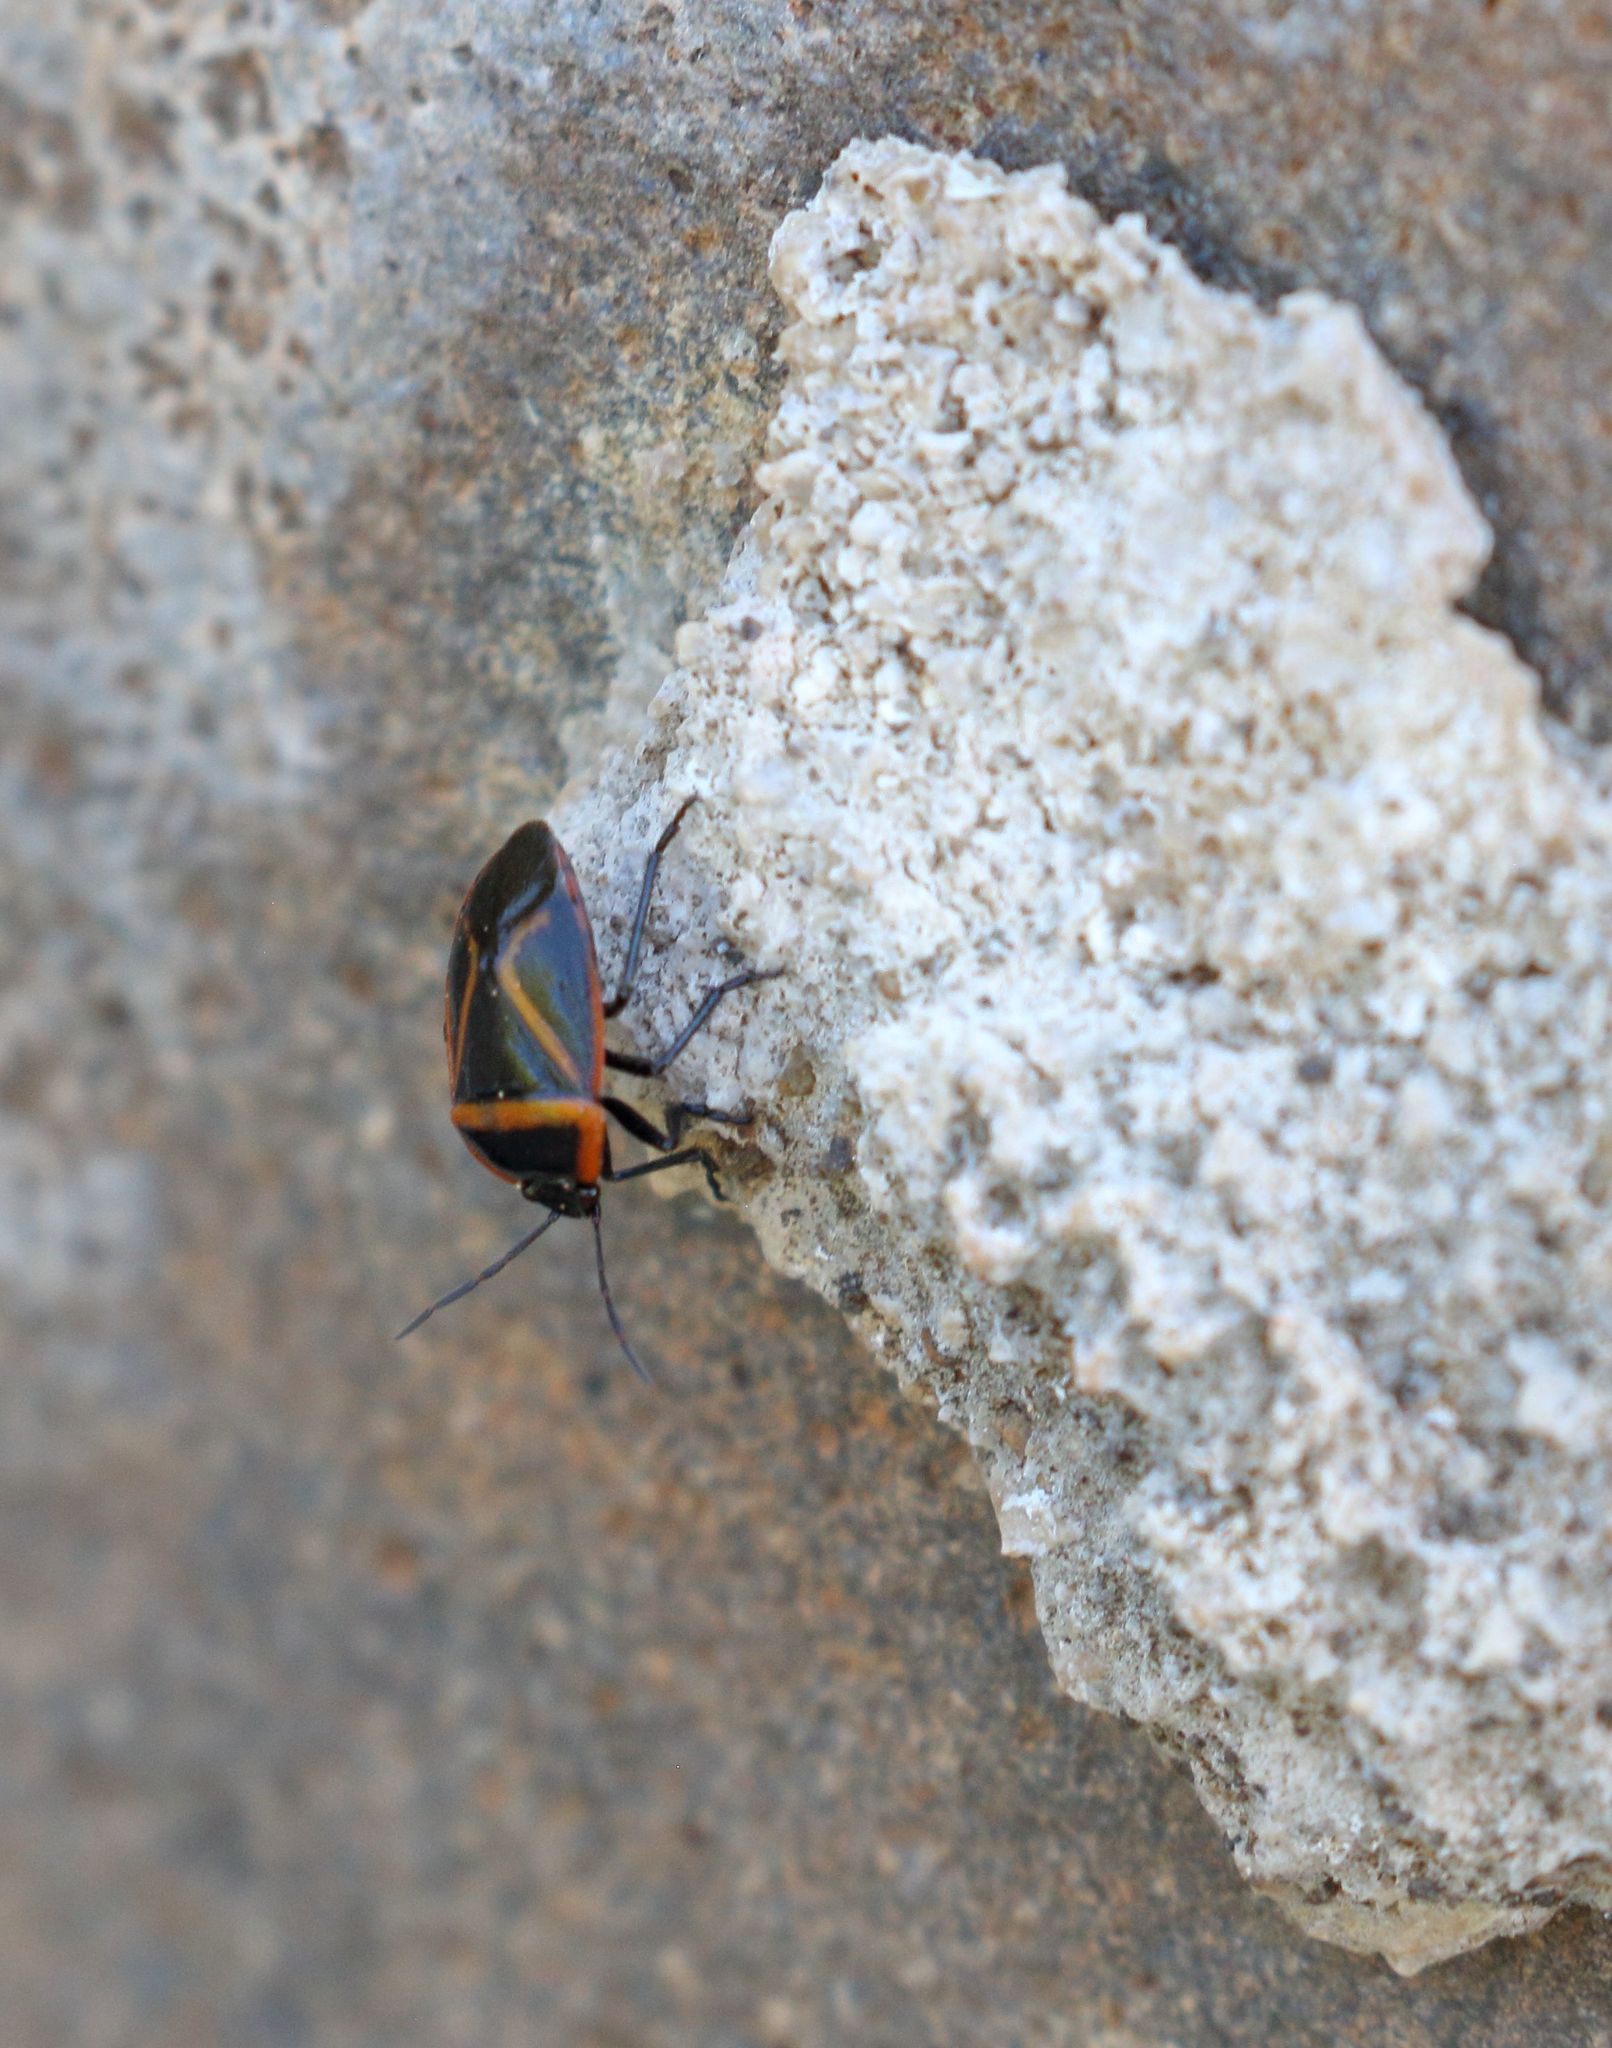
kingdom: Animalia
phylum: Arthropoda
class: Insecta
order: Hemiptera
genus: Dismegistus
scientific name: Dismegistus
